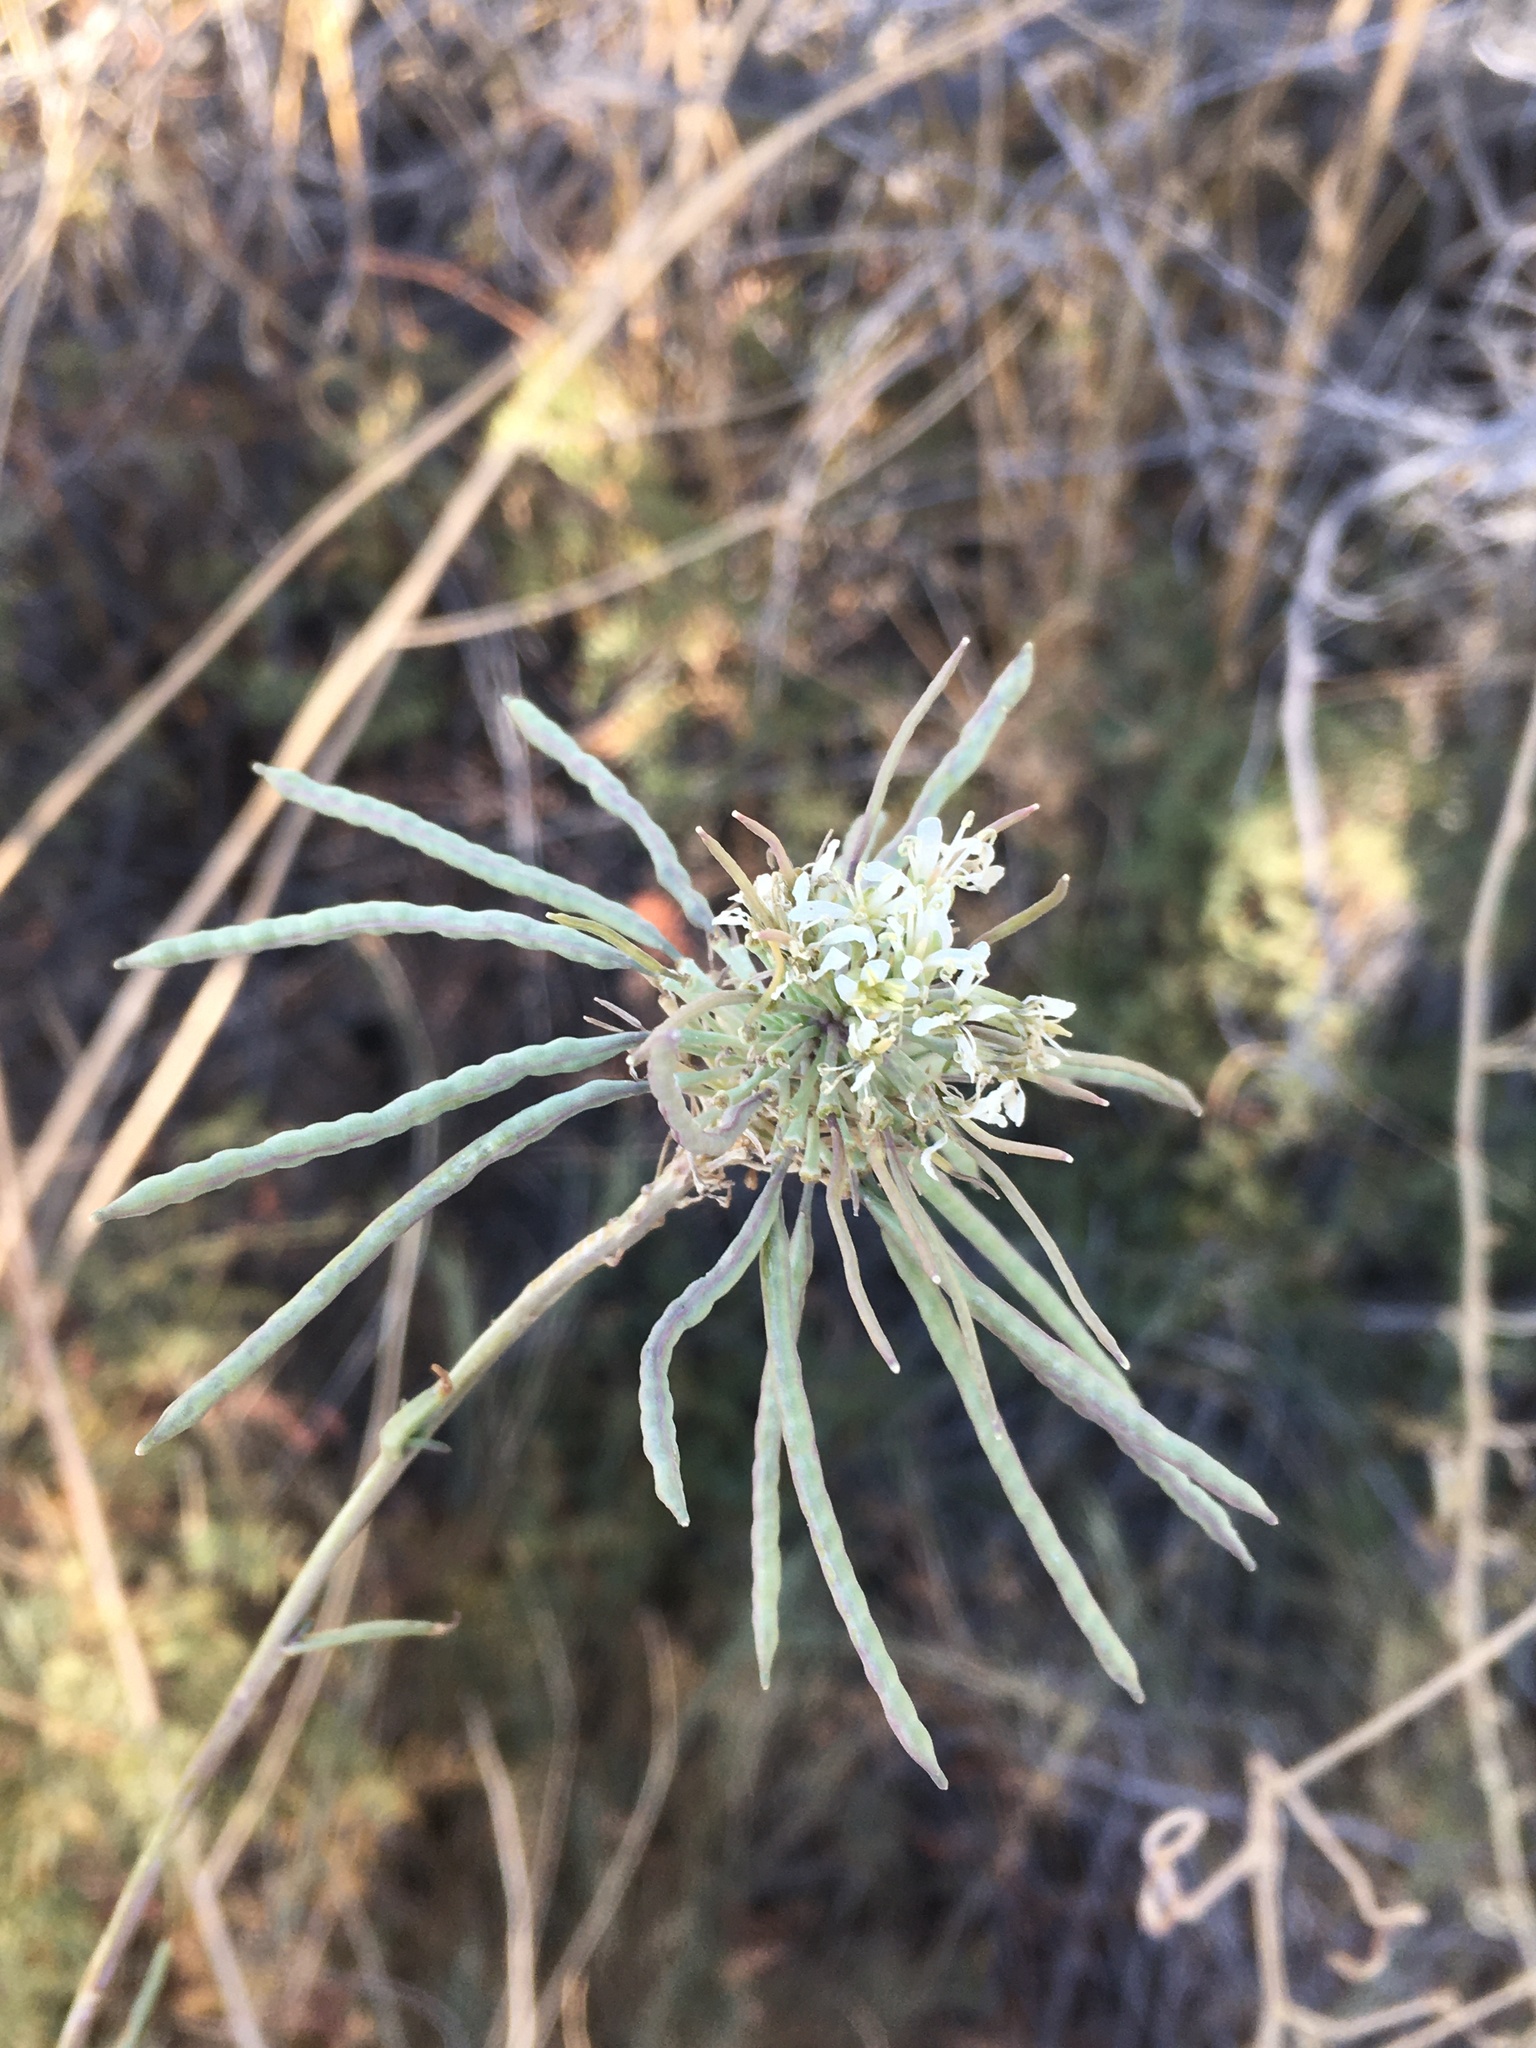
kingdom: Plantae
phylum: Tracheophyta
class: Magnoliopsida
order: Brassicales
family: Brassicaceae
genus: Thelypodium
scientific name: Thelypodium integrifolium
